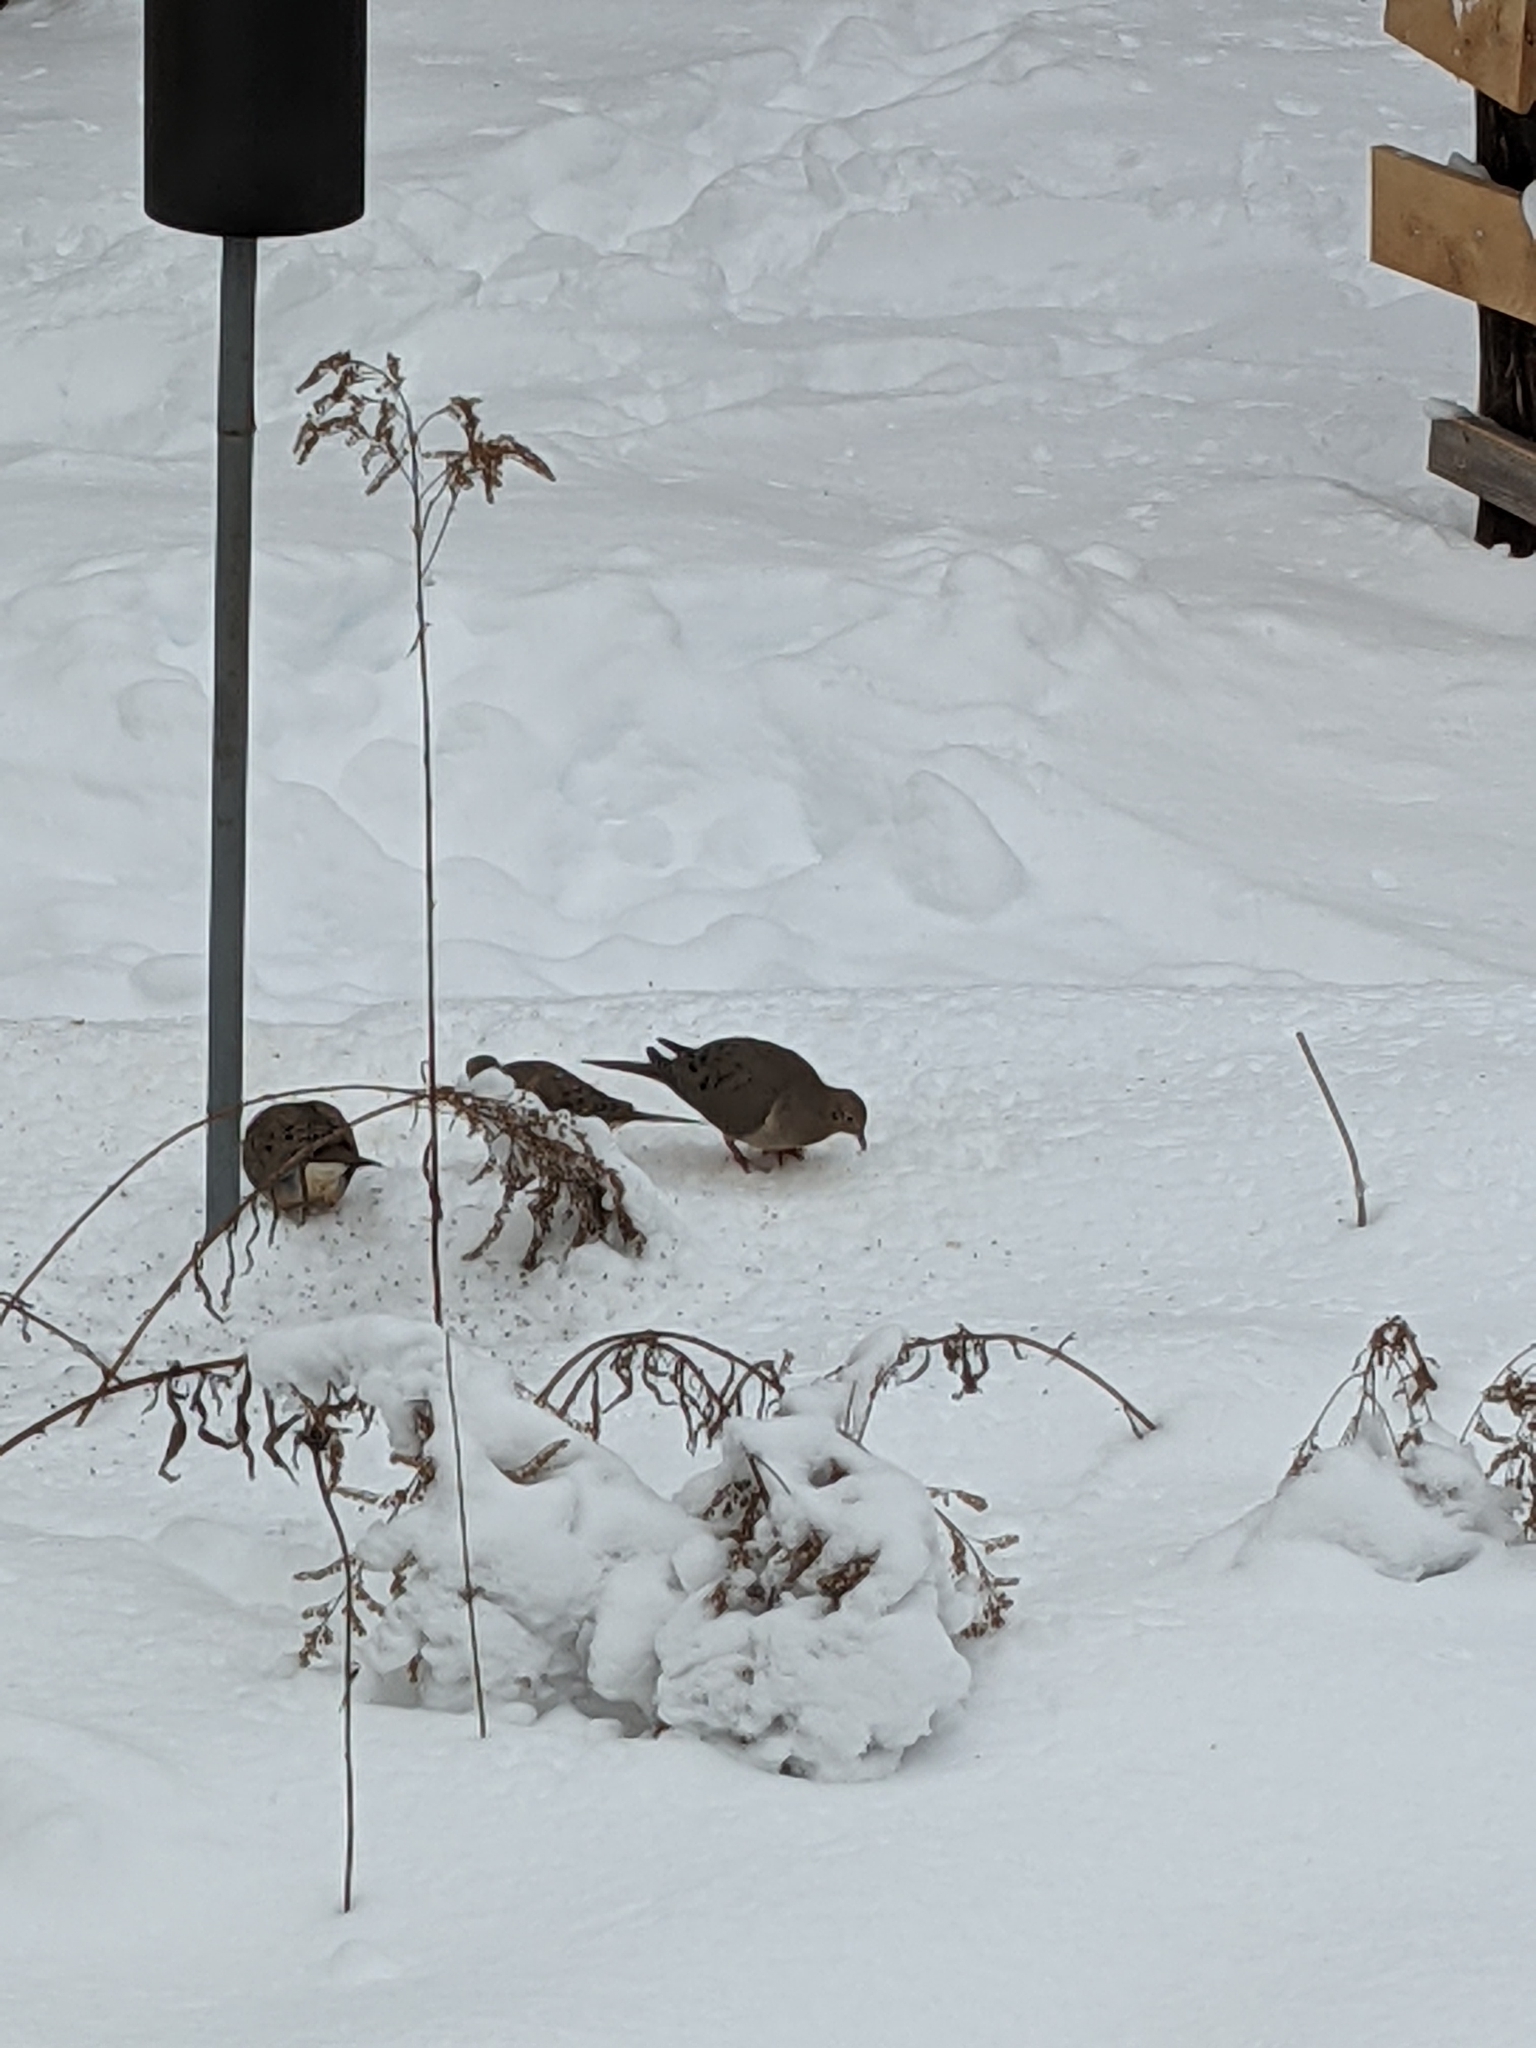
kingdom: Animalia
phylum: Chordata
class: Aves
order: Columbiformes
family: Columbidae
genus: Zenaida
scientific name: Zenaida macroura
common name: Mourning dove
